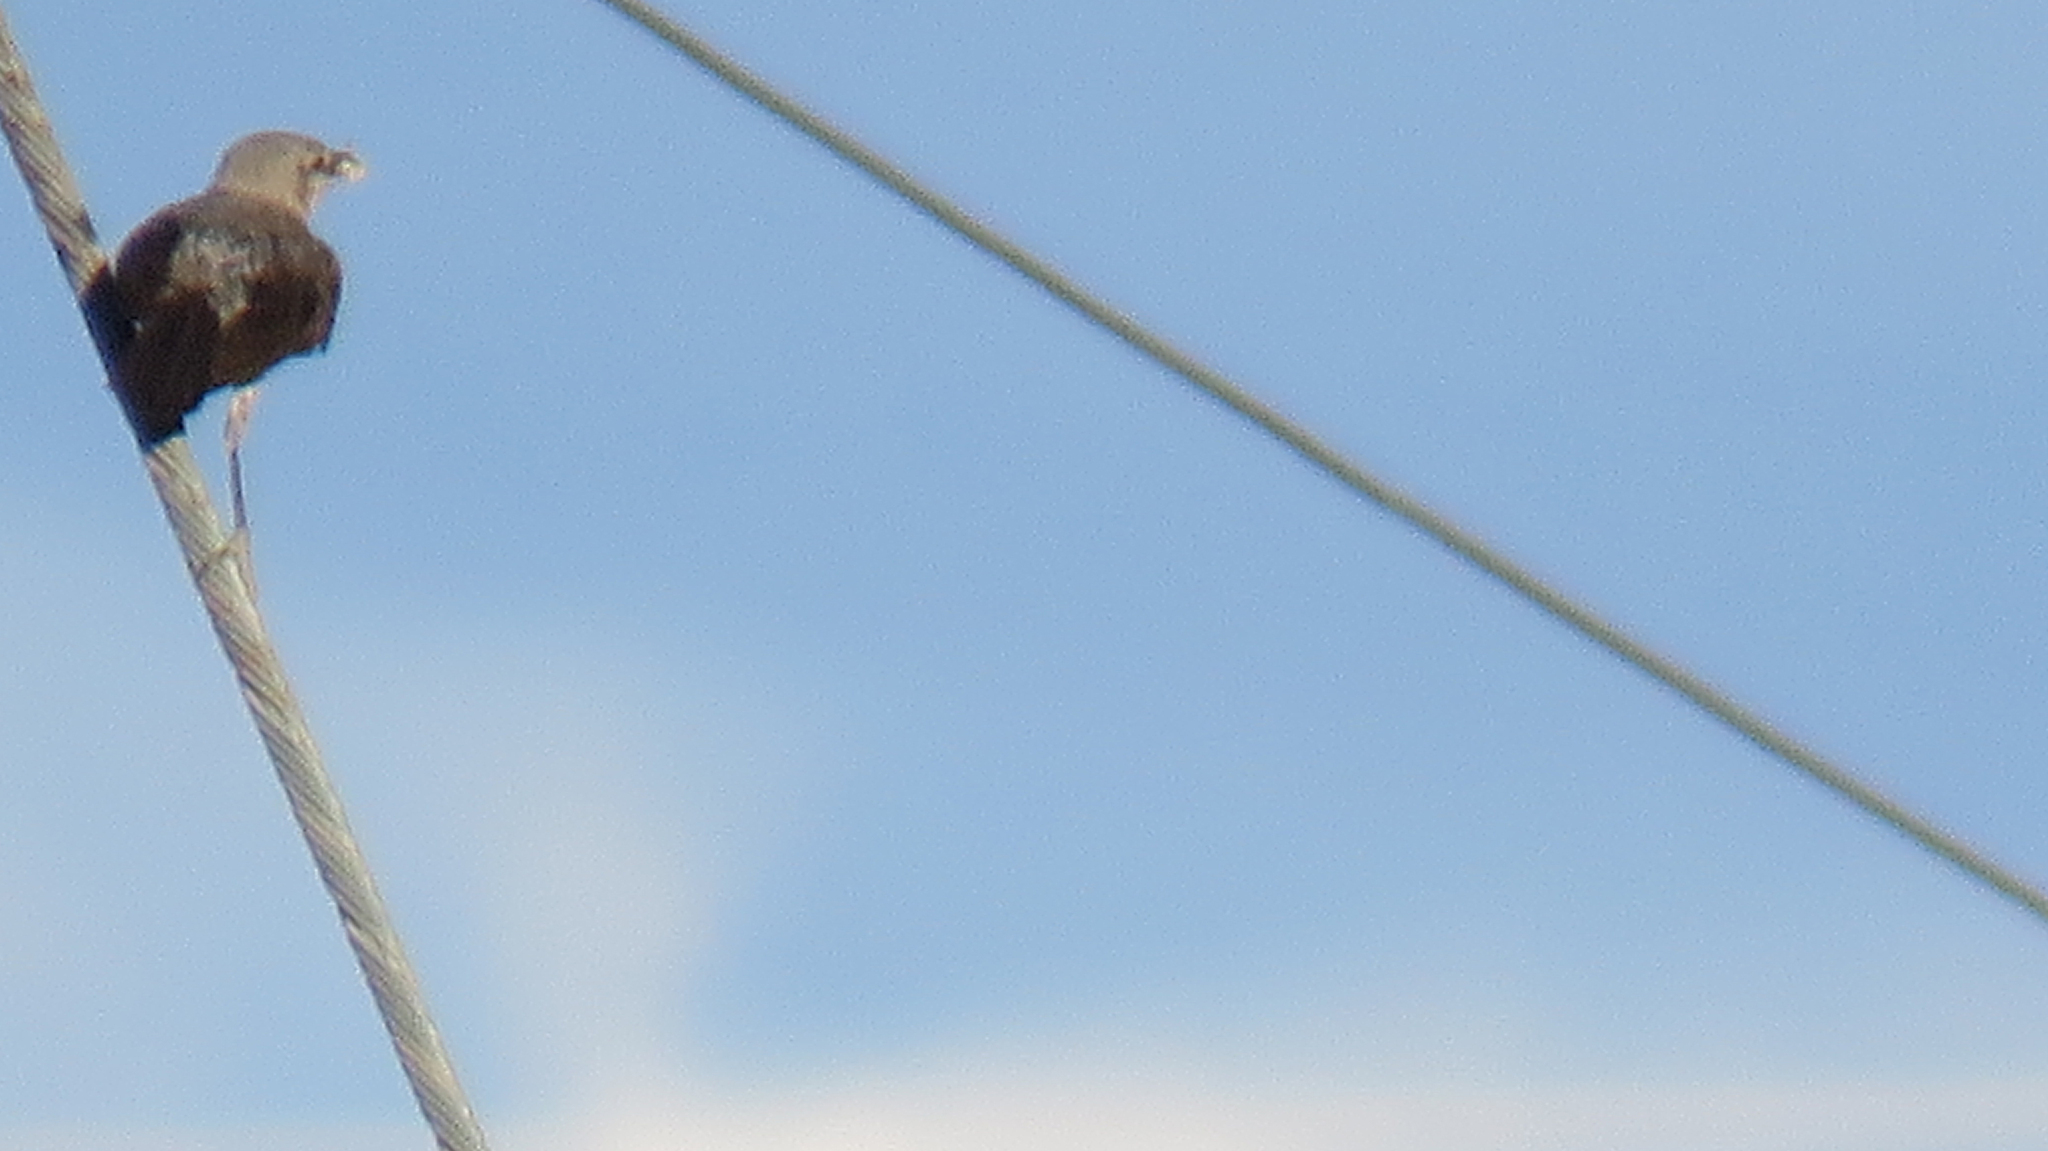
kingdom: Animalia
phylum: Chordata
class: Aves
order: Passeriformes
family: Mimidae
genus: Mimus
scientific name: Mimus polyglottos
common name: Northern mockingbird
